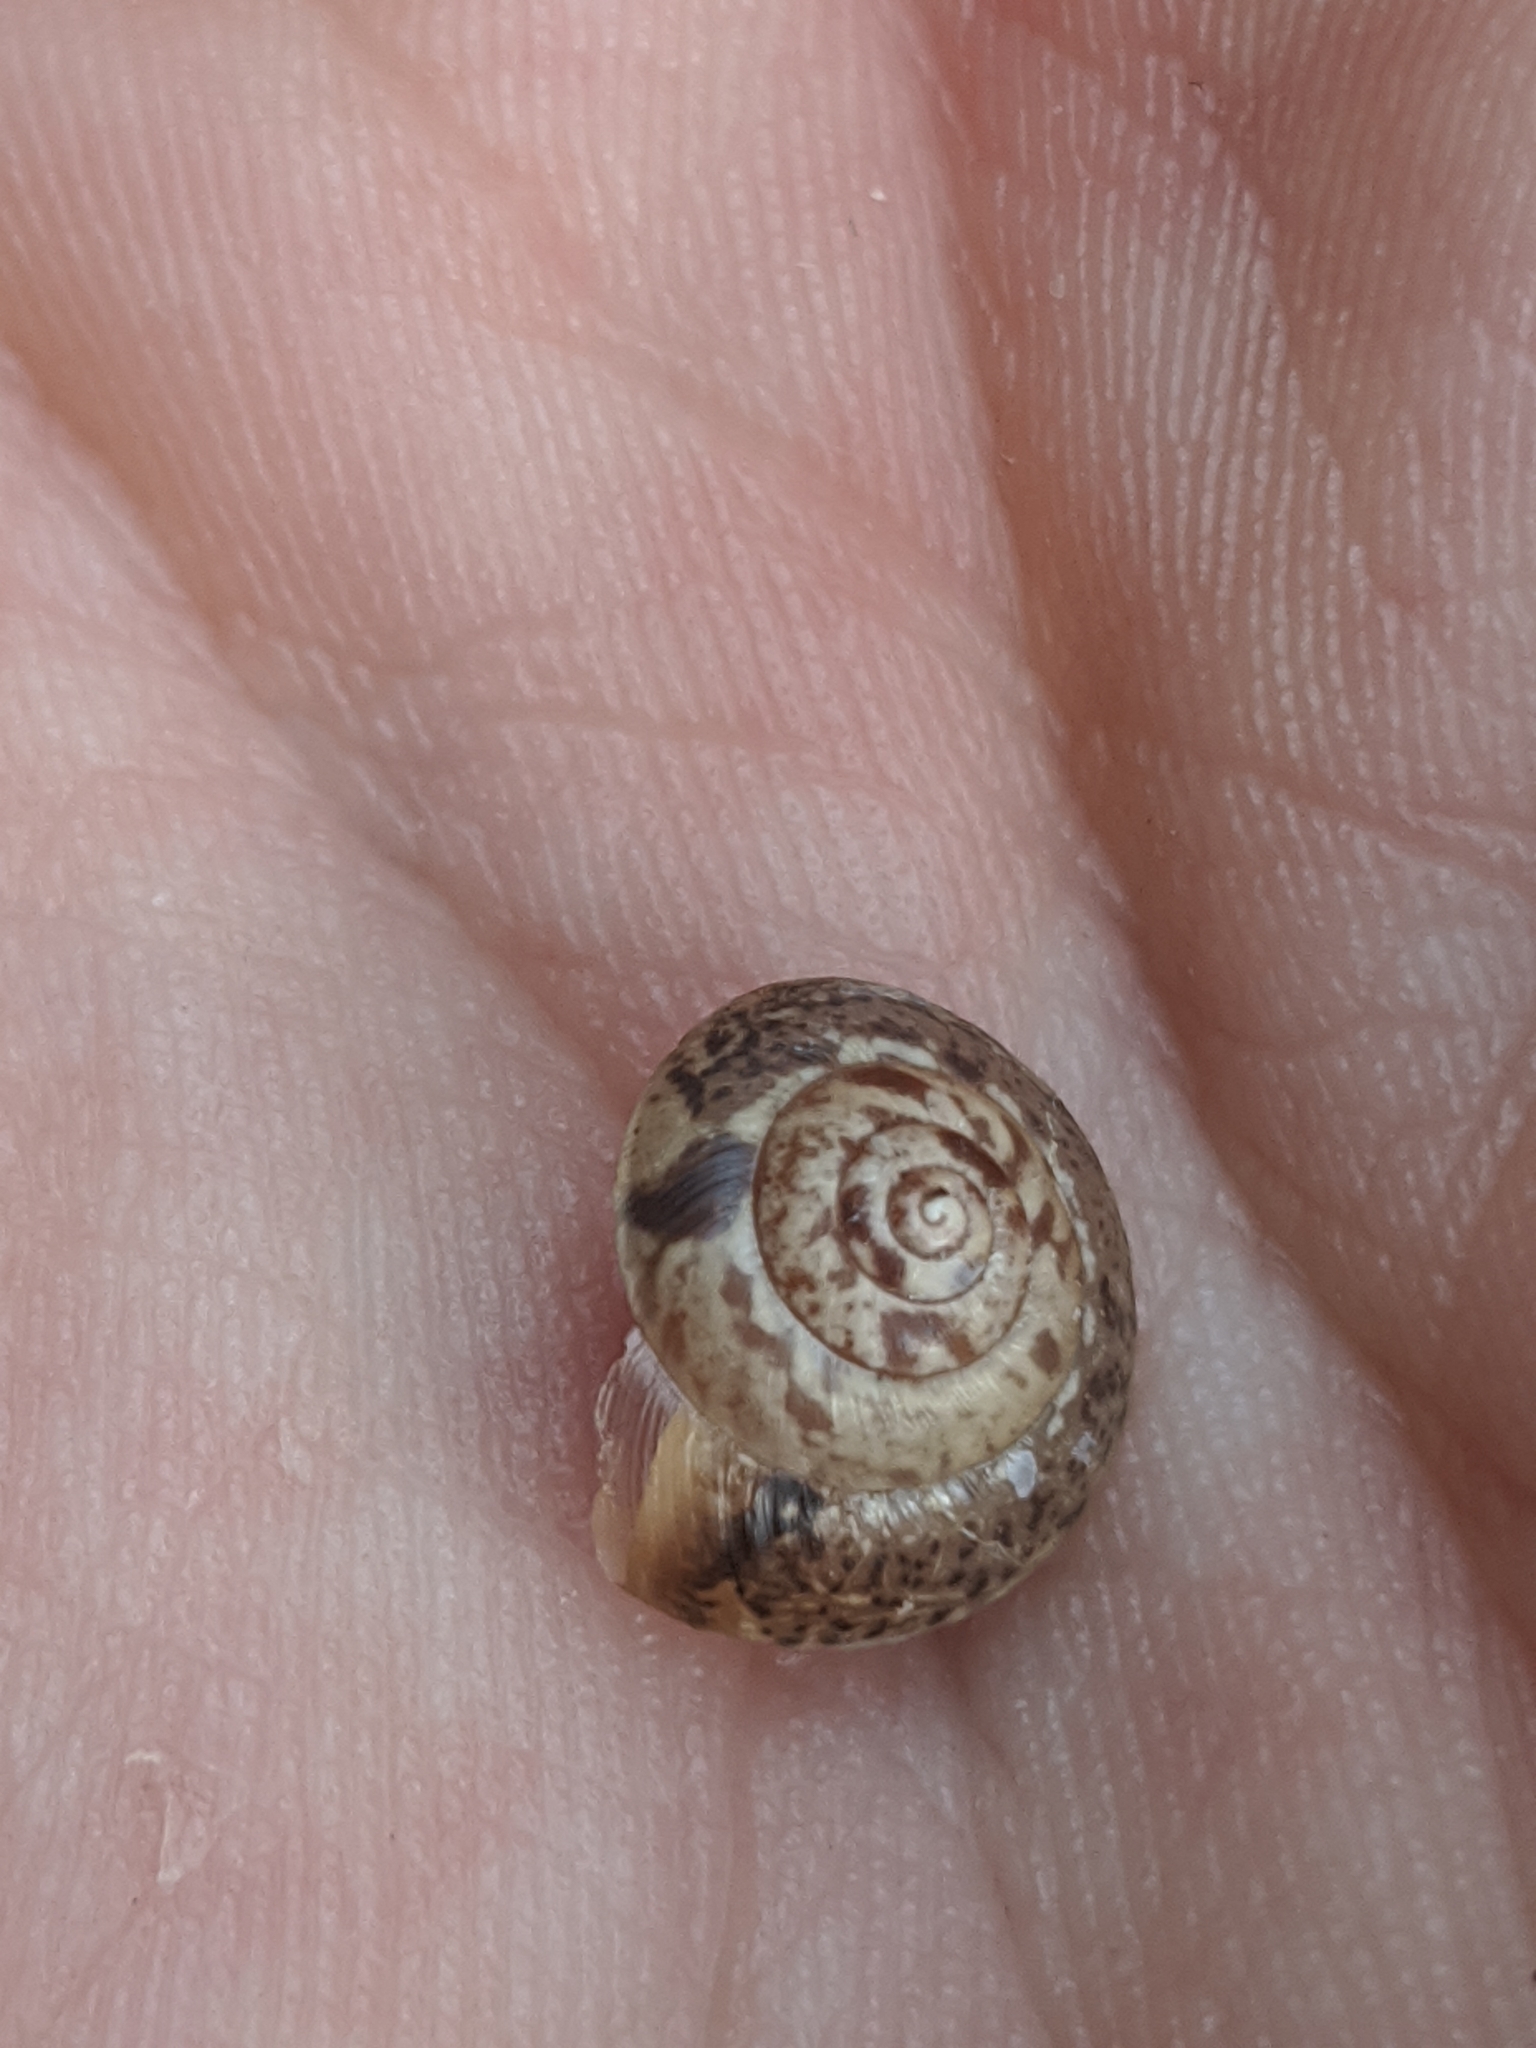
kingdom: Animalia
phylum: Mollusca
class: Gastropoda
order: Stylommatophora
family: Hygromiidae
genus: Hygromia
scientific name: Hygromia cinctella
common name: Girdled snail
